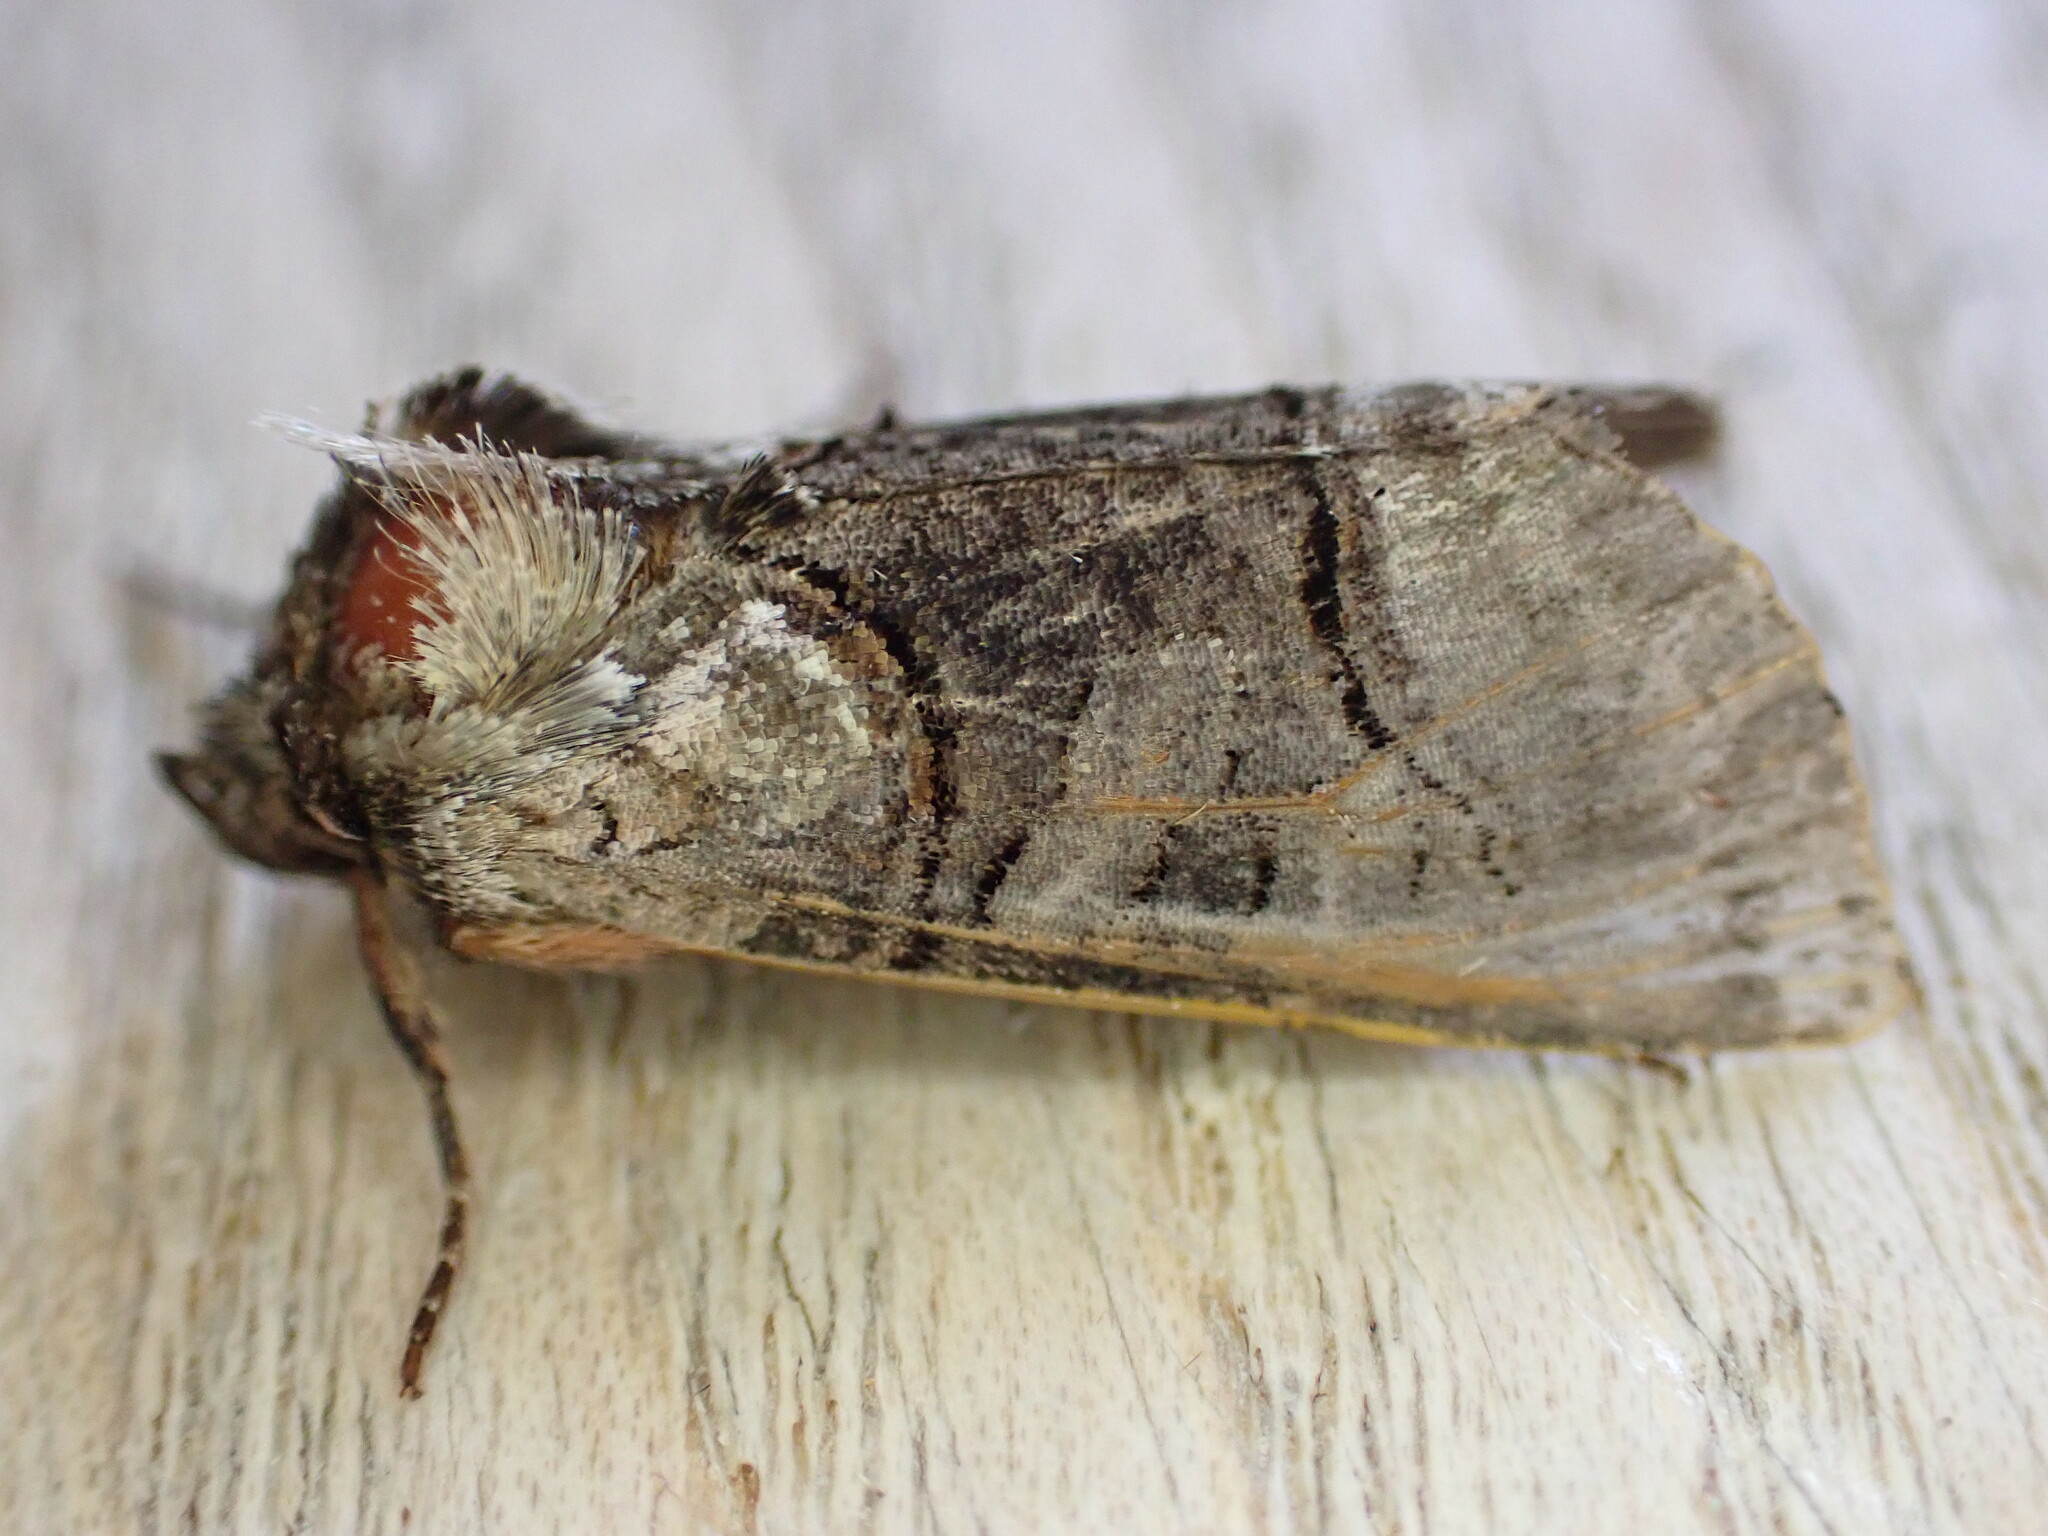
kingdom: Animalia
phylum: Arthropoda
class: Insecta
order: Lepidoptera
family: Noctuidae
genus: Abrostola
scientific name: Abrostola tripartita
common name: Spectacle
